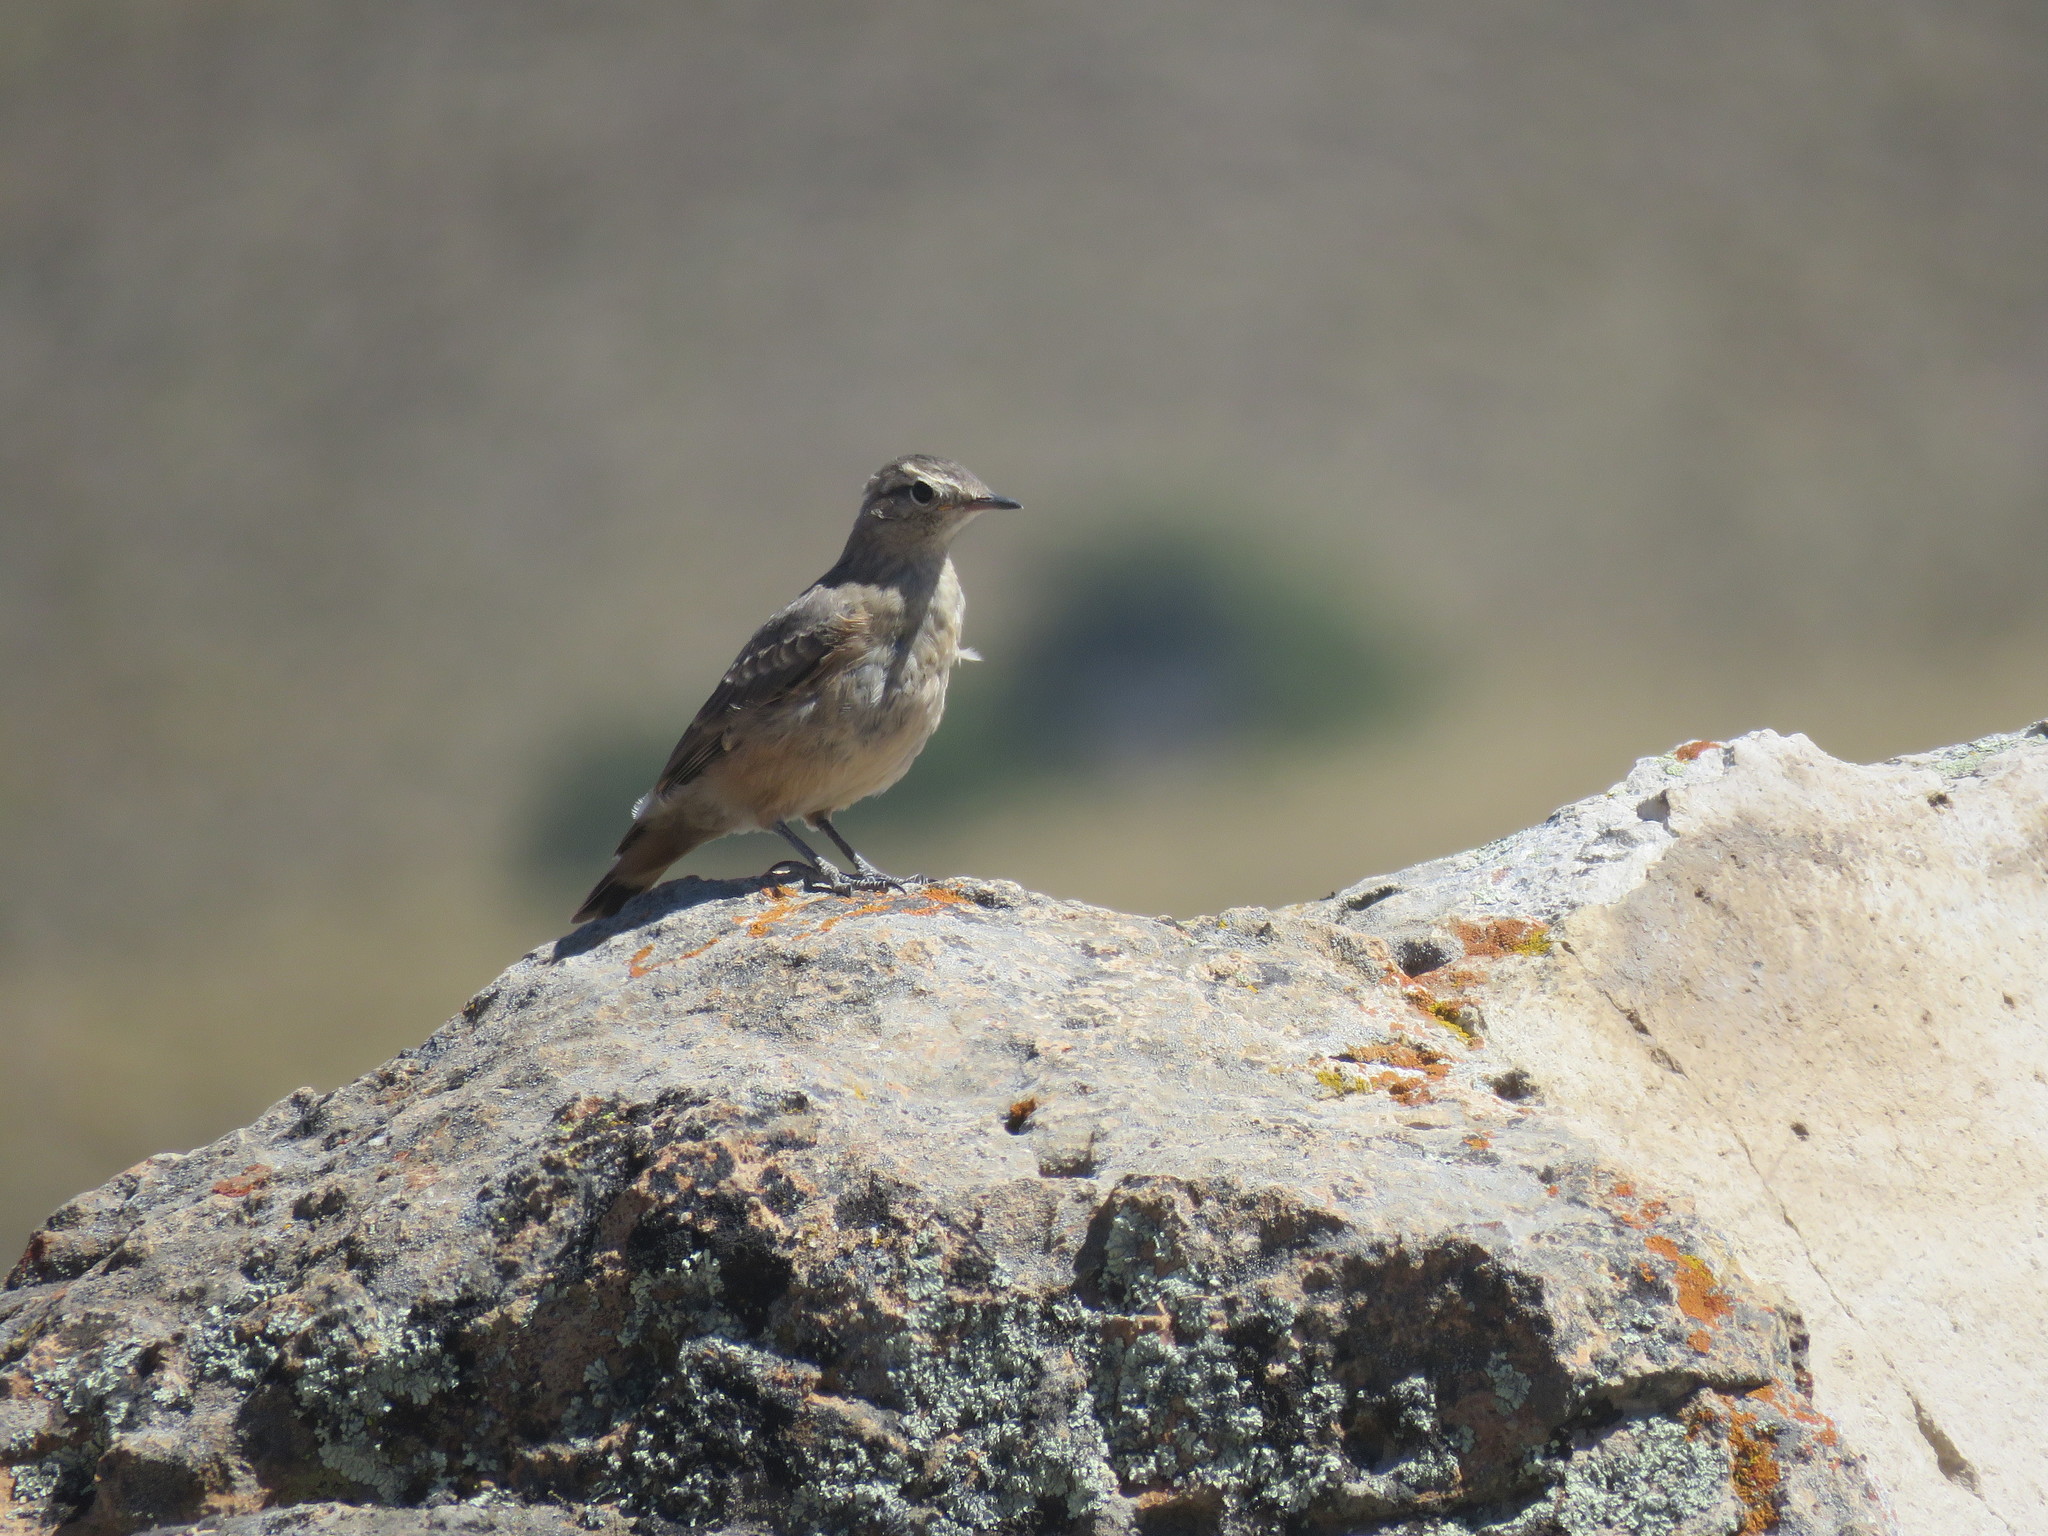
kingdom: Animalia
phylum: Chordata
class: Aves
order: Passeriformes
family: Furnariidae
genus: Geositta
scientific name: Geositta rufipennis
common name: Rufous-banded miner
